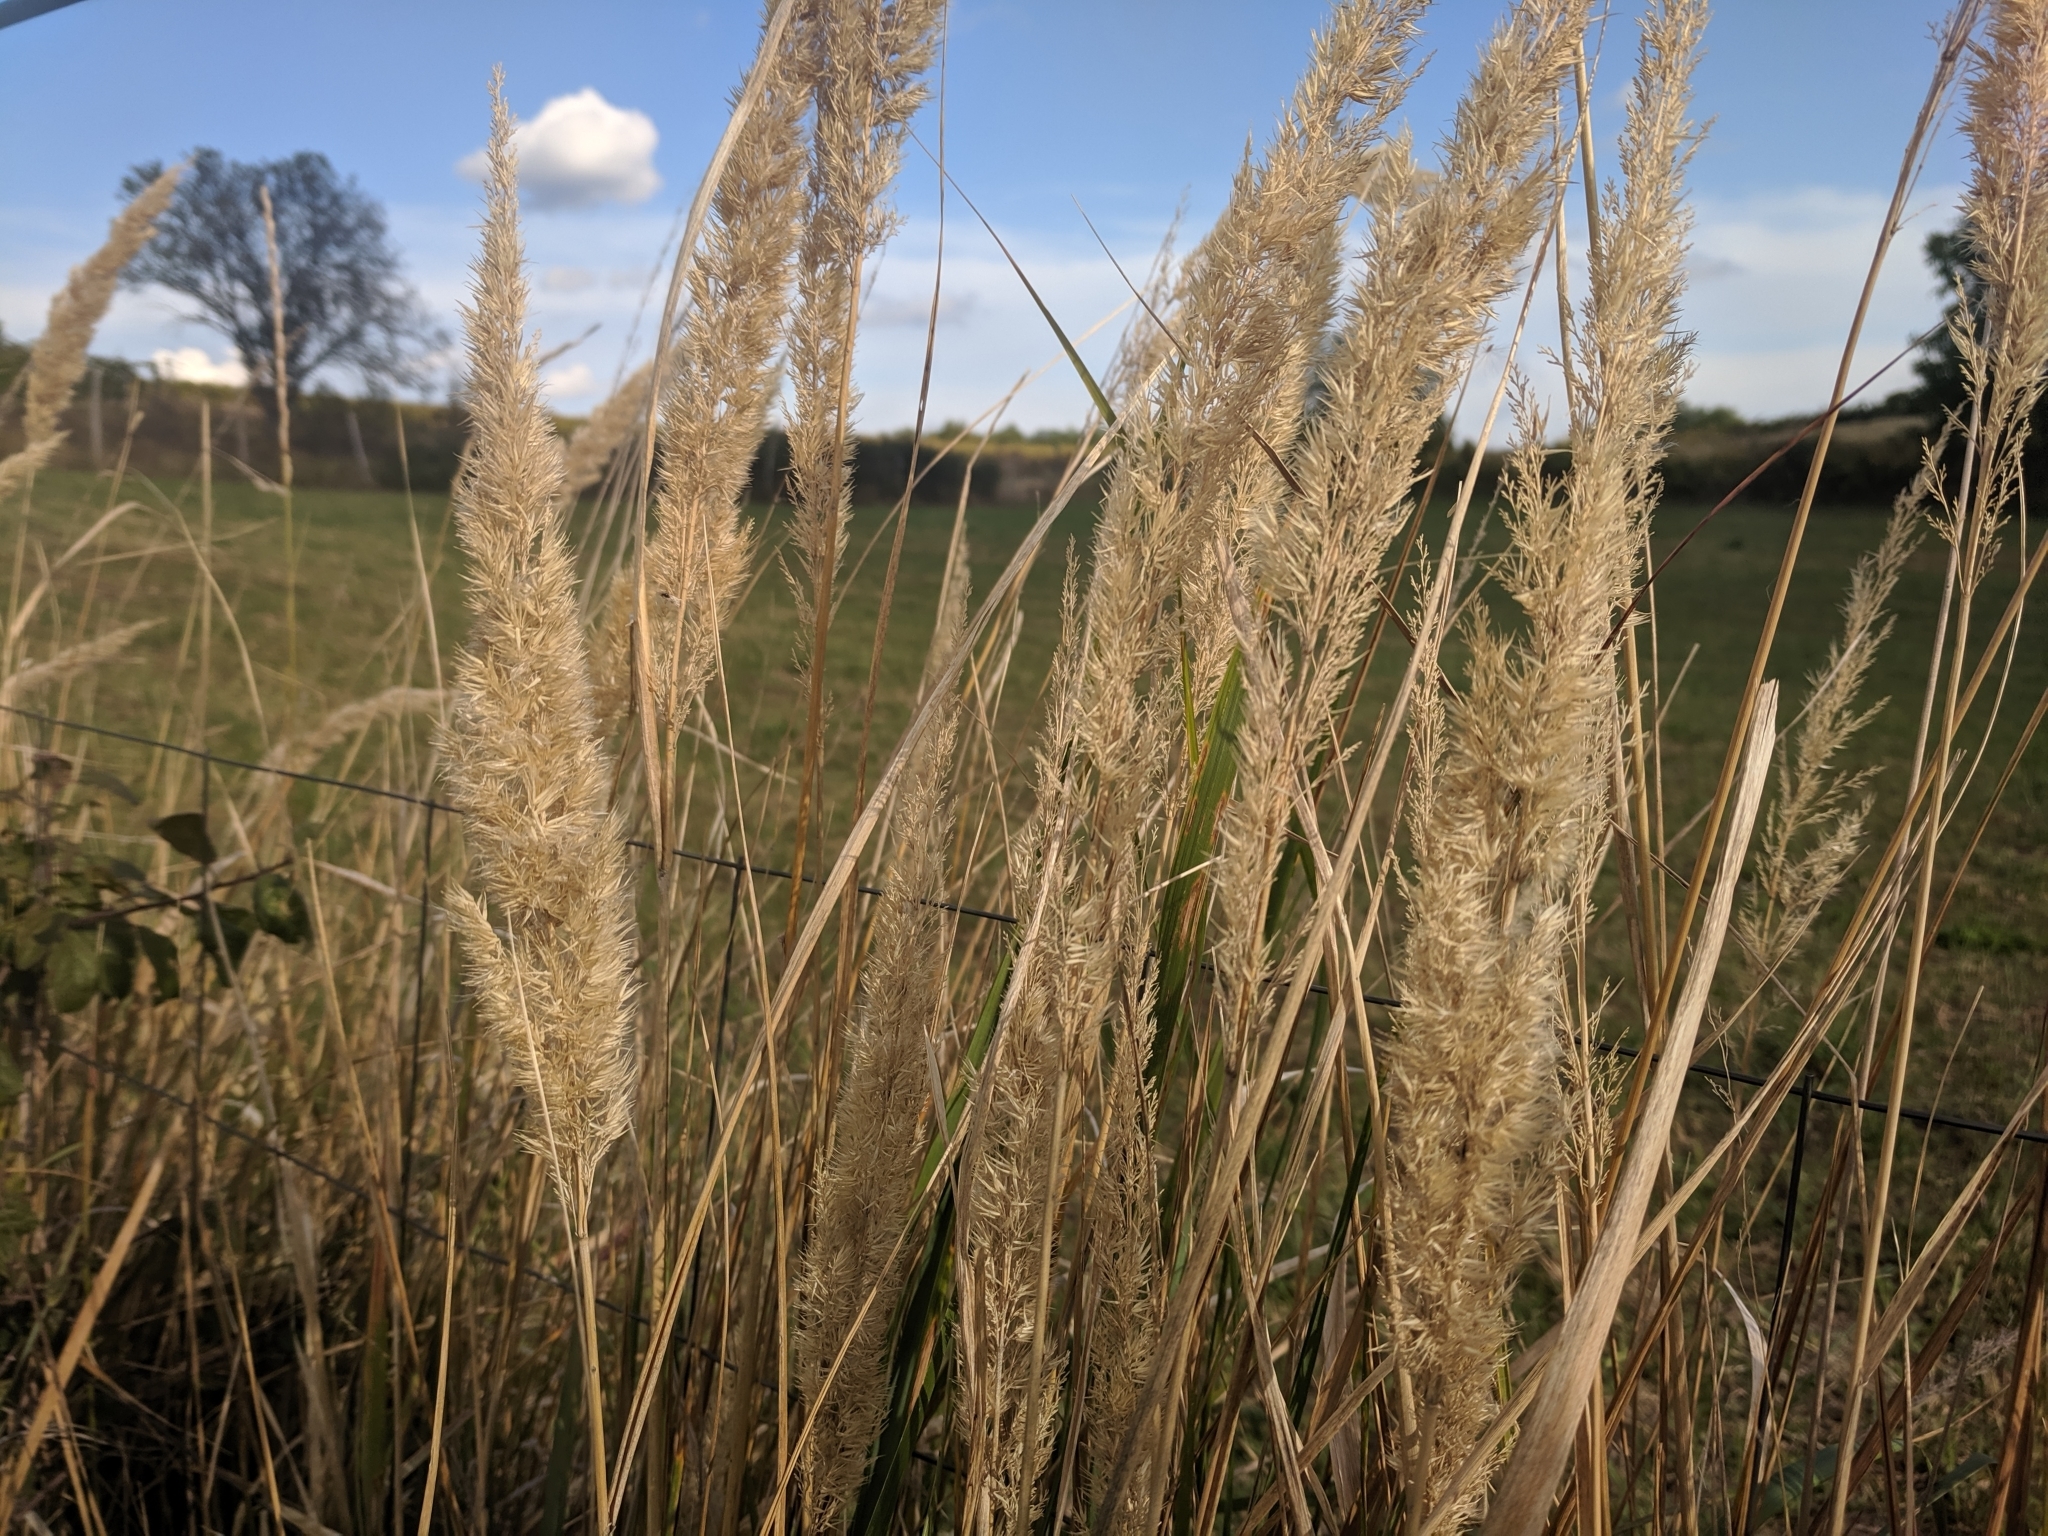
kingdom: Plantae
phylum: Tracheophyta
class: Liliopsida
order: Poales
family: Poaceae
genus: Calamagrostis
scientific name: Calamagrostis epigejos
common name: Wood small-reed
